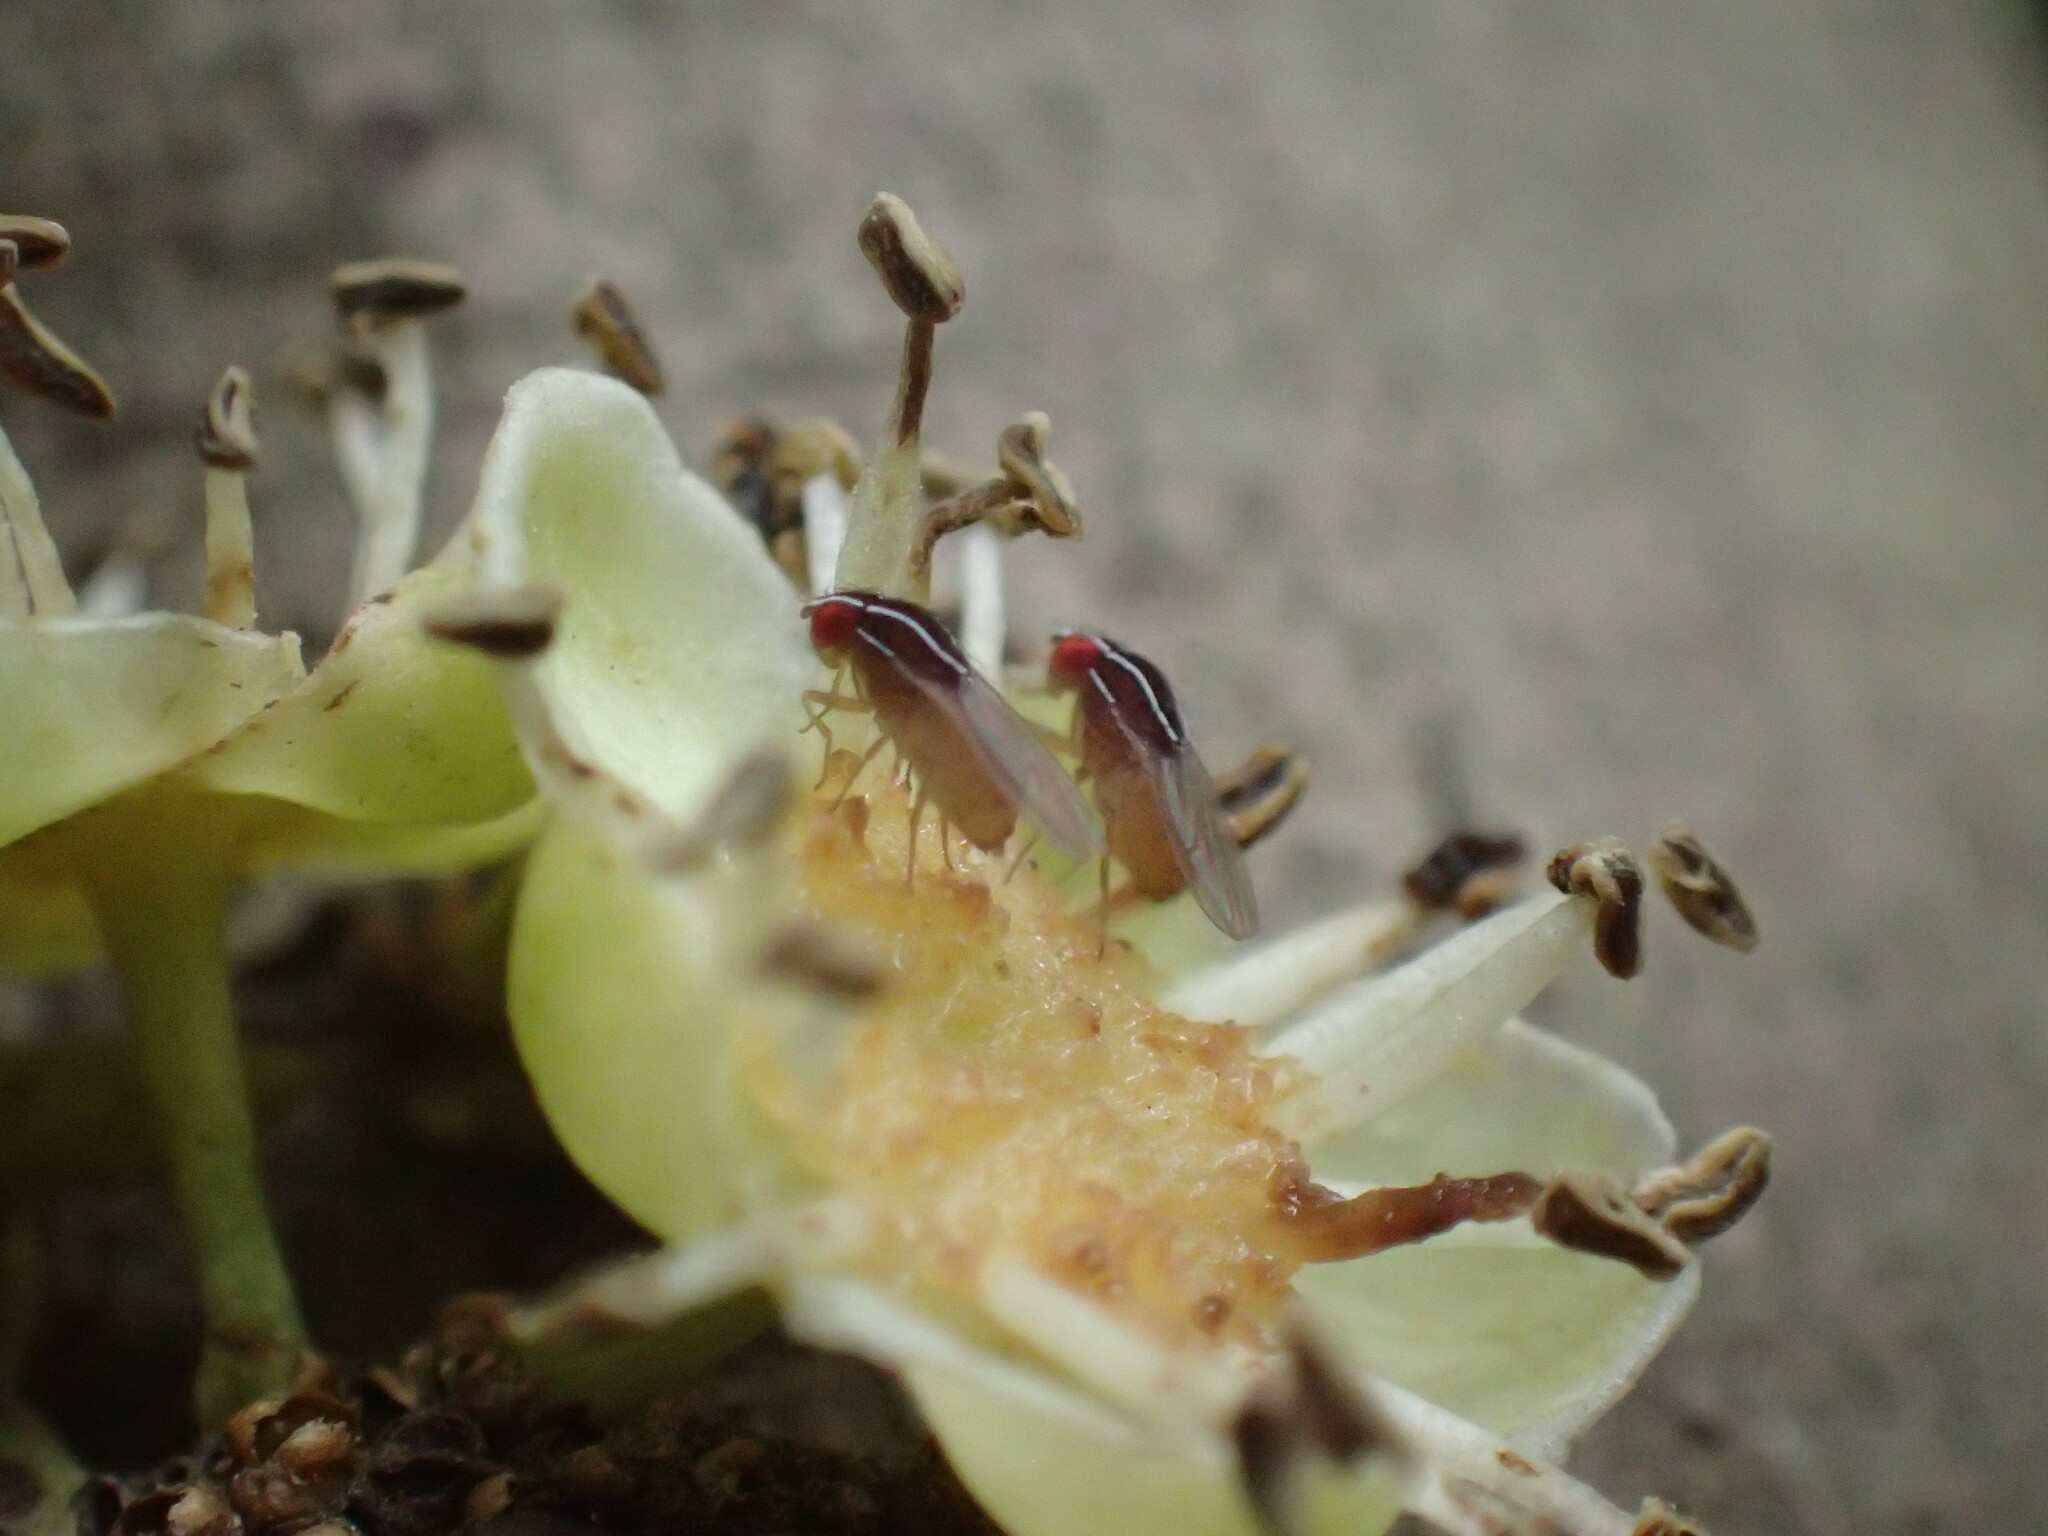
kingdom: Animalia
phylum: Arthropoda
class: Insecta
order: Diptera
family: Drosophilidae
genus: Zaprionus
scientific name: Zaprionus indianus
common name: African fig fly
